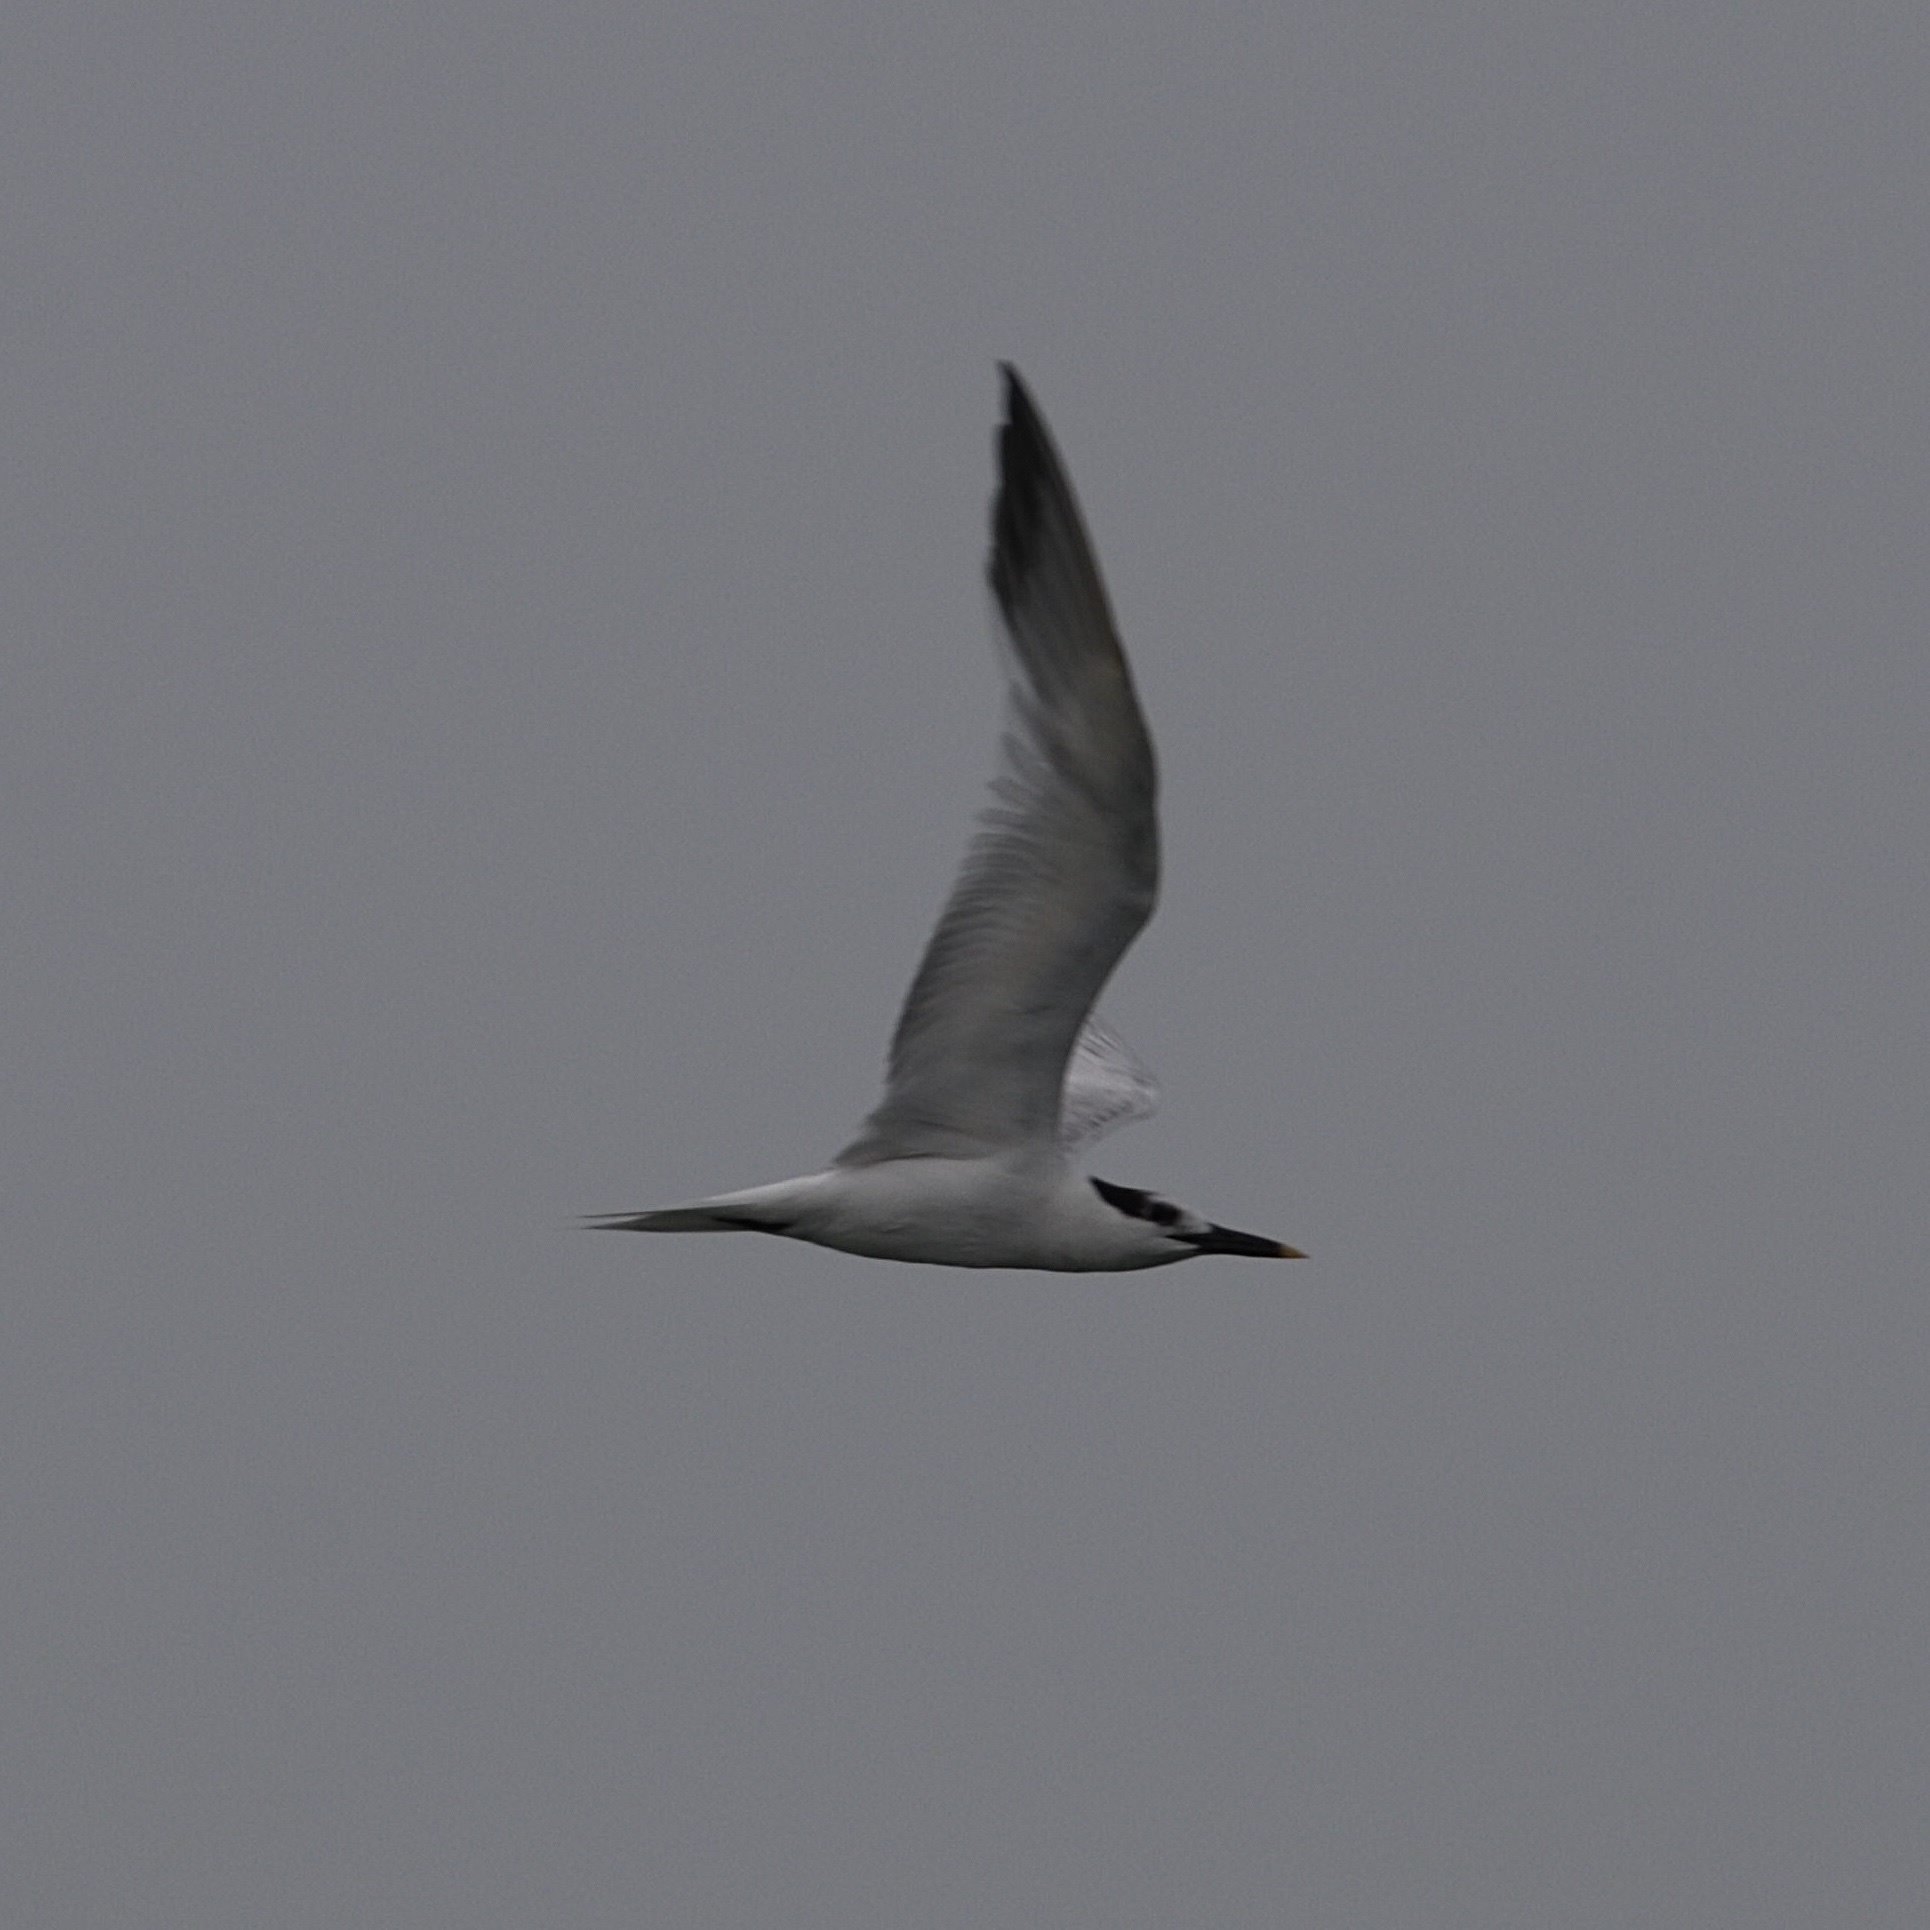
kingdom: Animalia
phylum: Chordata
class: Aves
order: Charadriiformes
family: Laridae
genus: Thalasseus
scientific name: Thalasseus sandvicensis
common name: Sandwich tern
